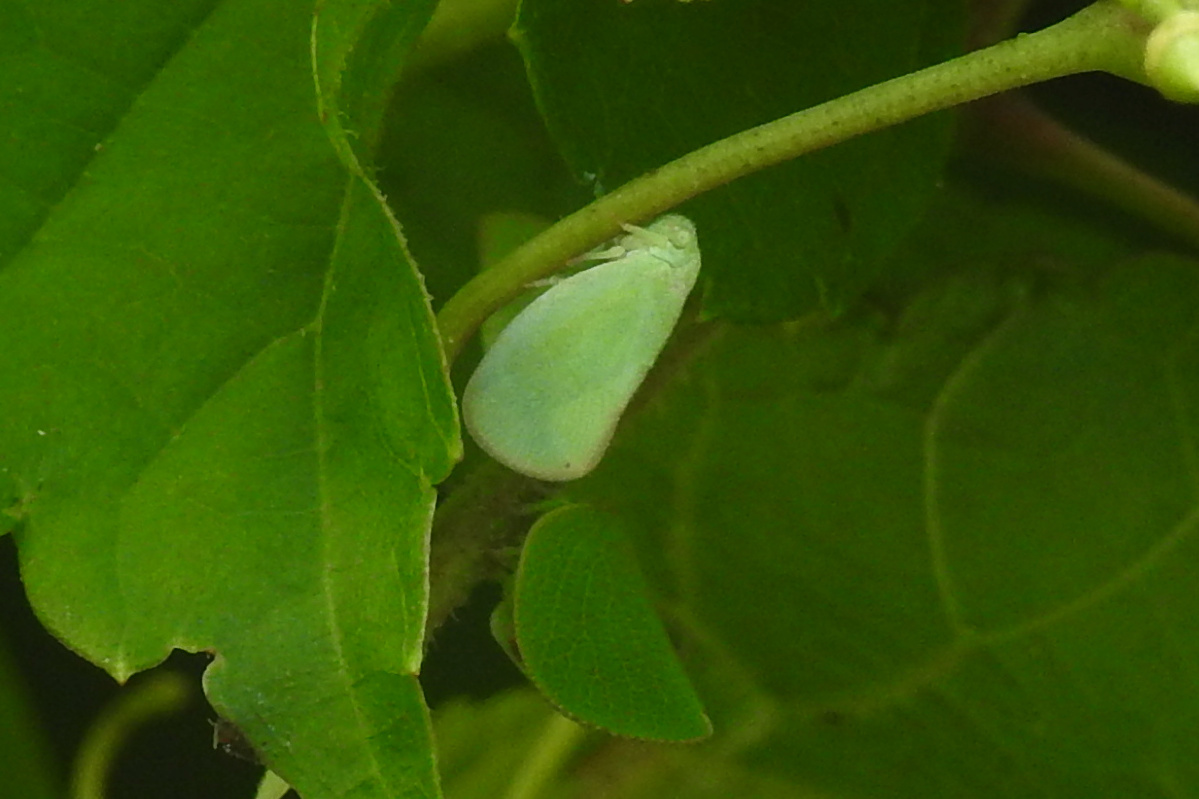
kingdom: Animalia
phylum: Arthropoda
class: Insecta
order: Hemiptera
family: Flatidae
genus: Ormenoides
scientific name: Ormenoides venusta
